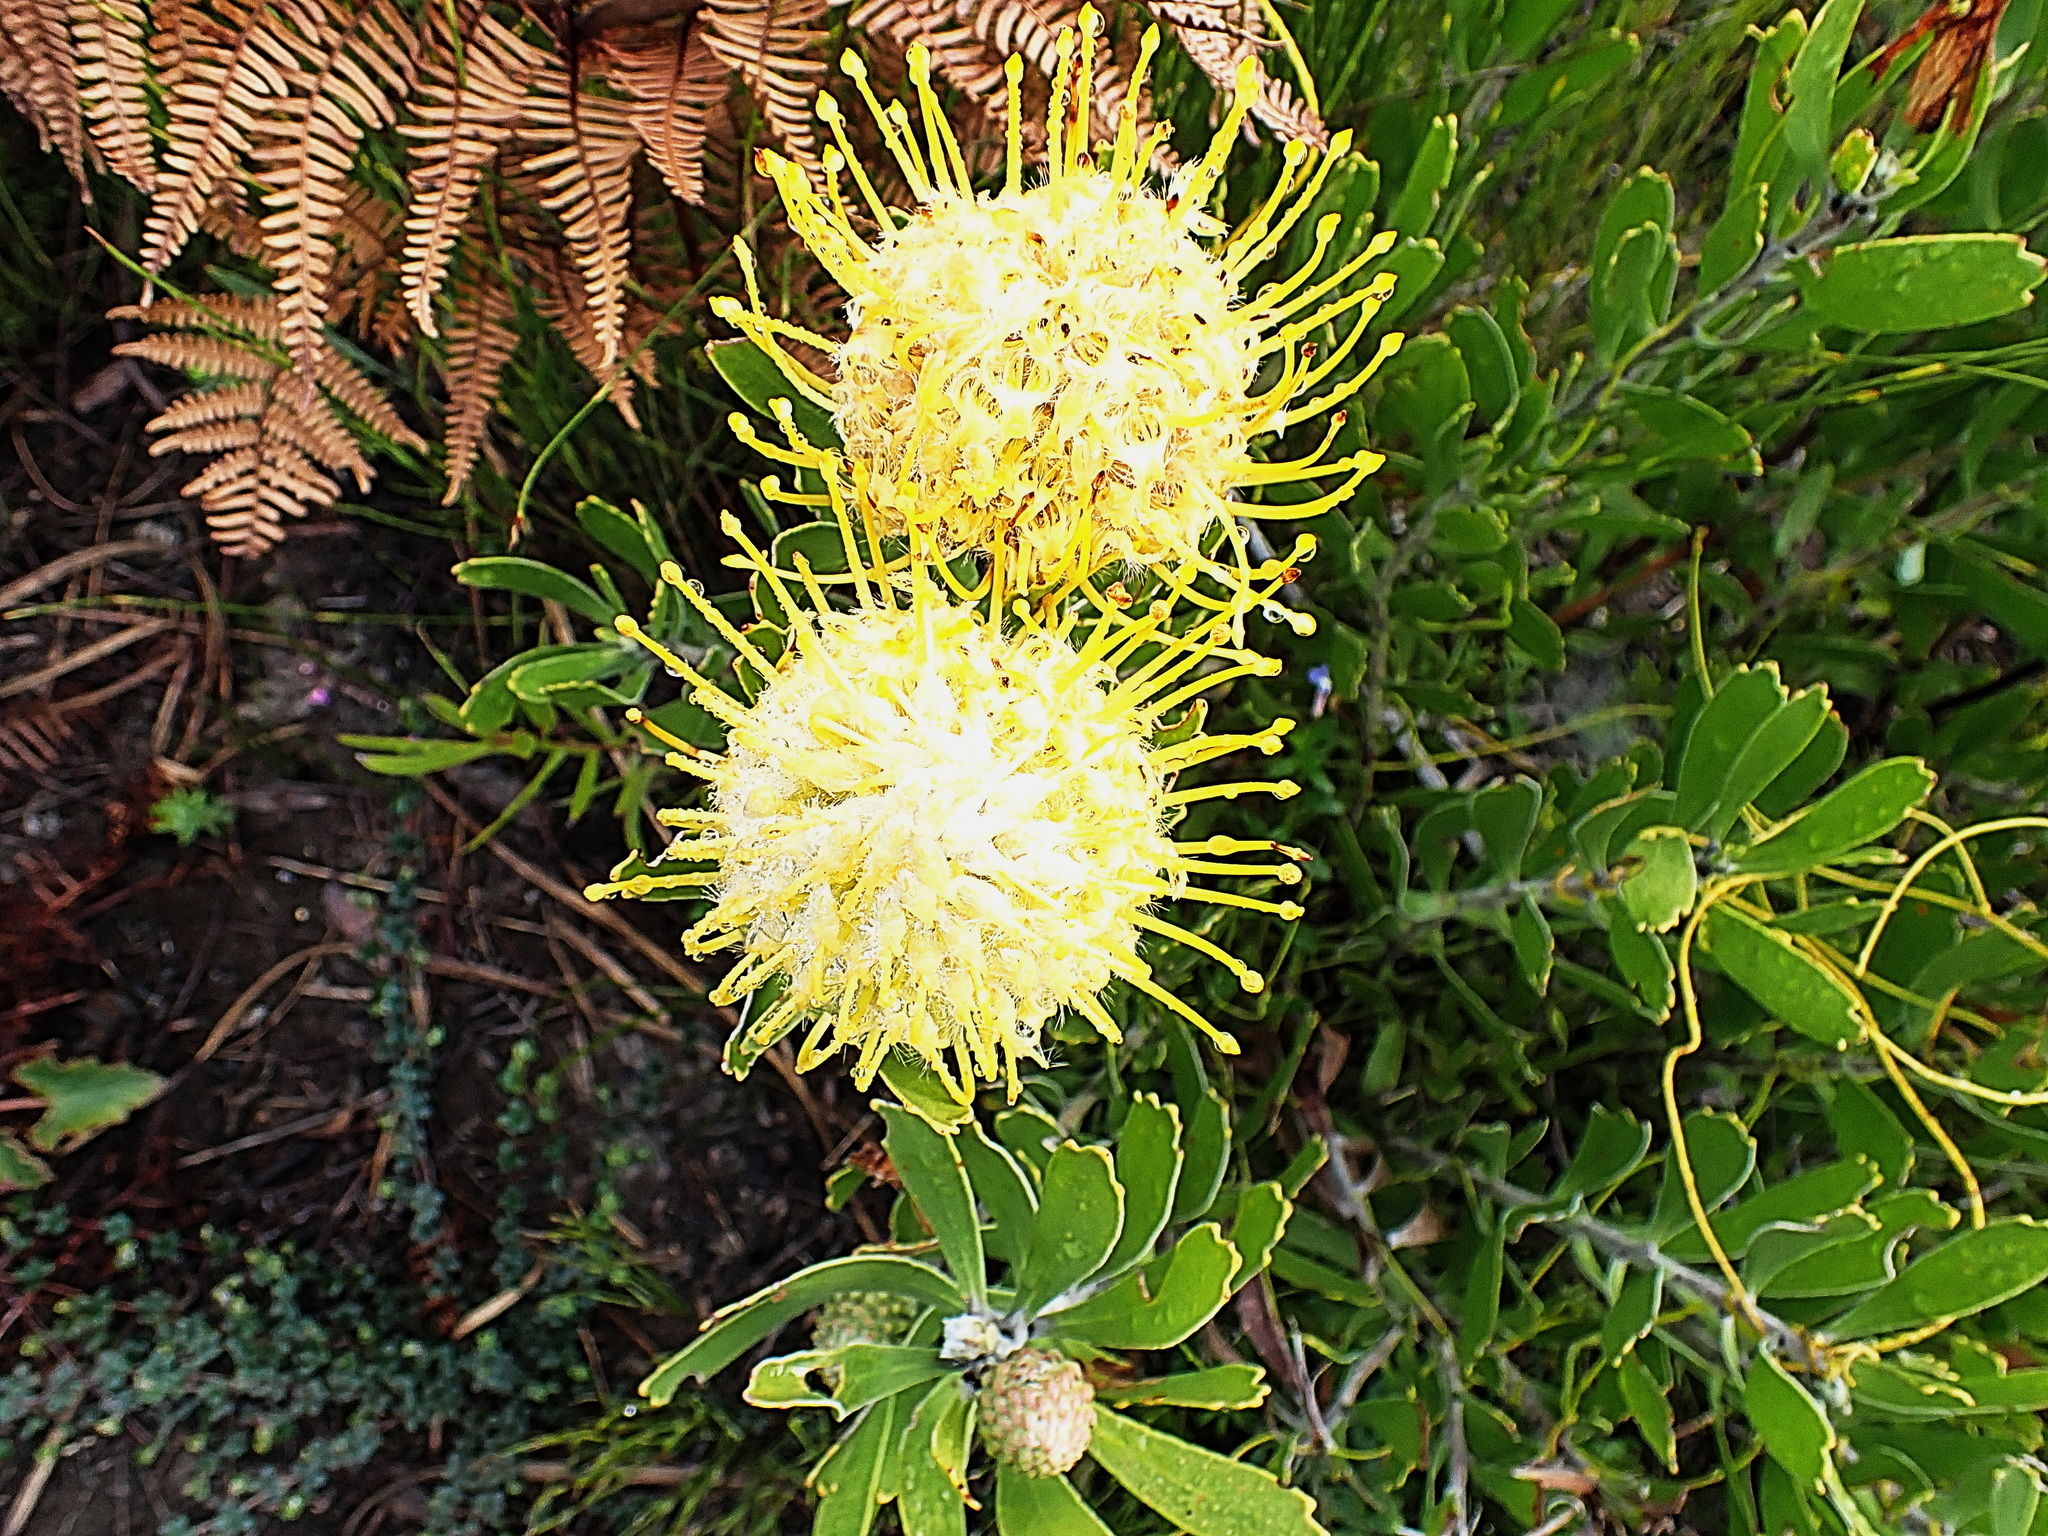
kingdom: Plantae
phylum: Tracheophyta
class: Magnoliopsida
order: Proteales
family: Proteaceae
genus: Leucospermum
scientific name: Leucospermum cuneiforme
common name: Common pincushion
